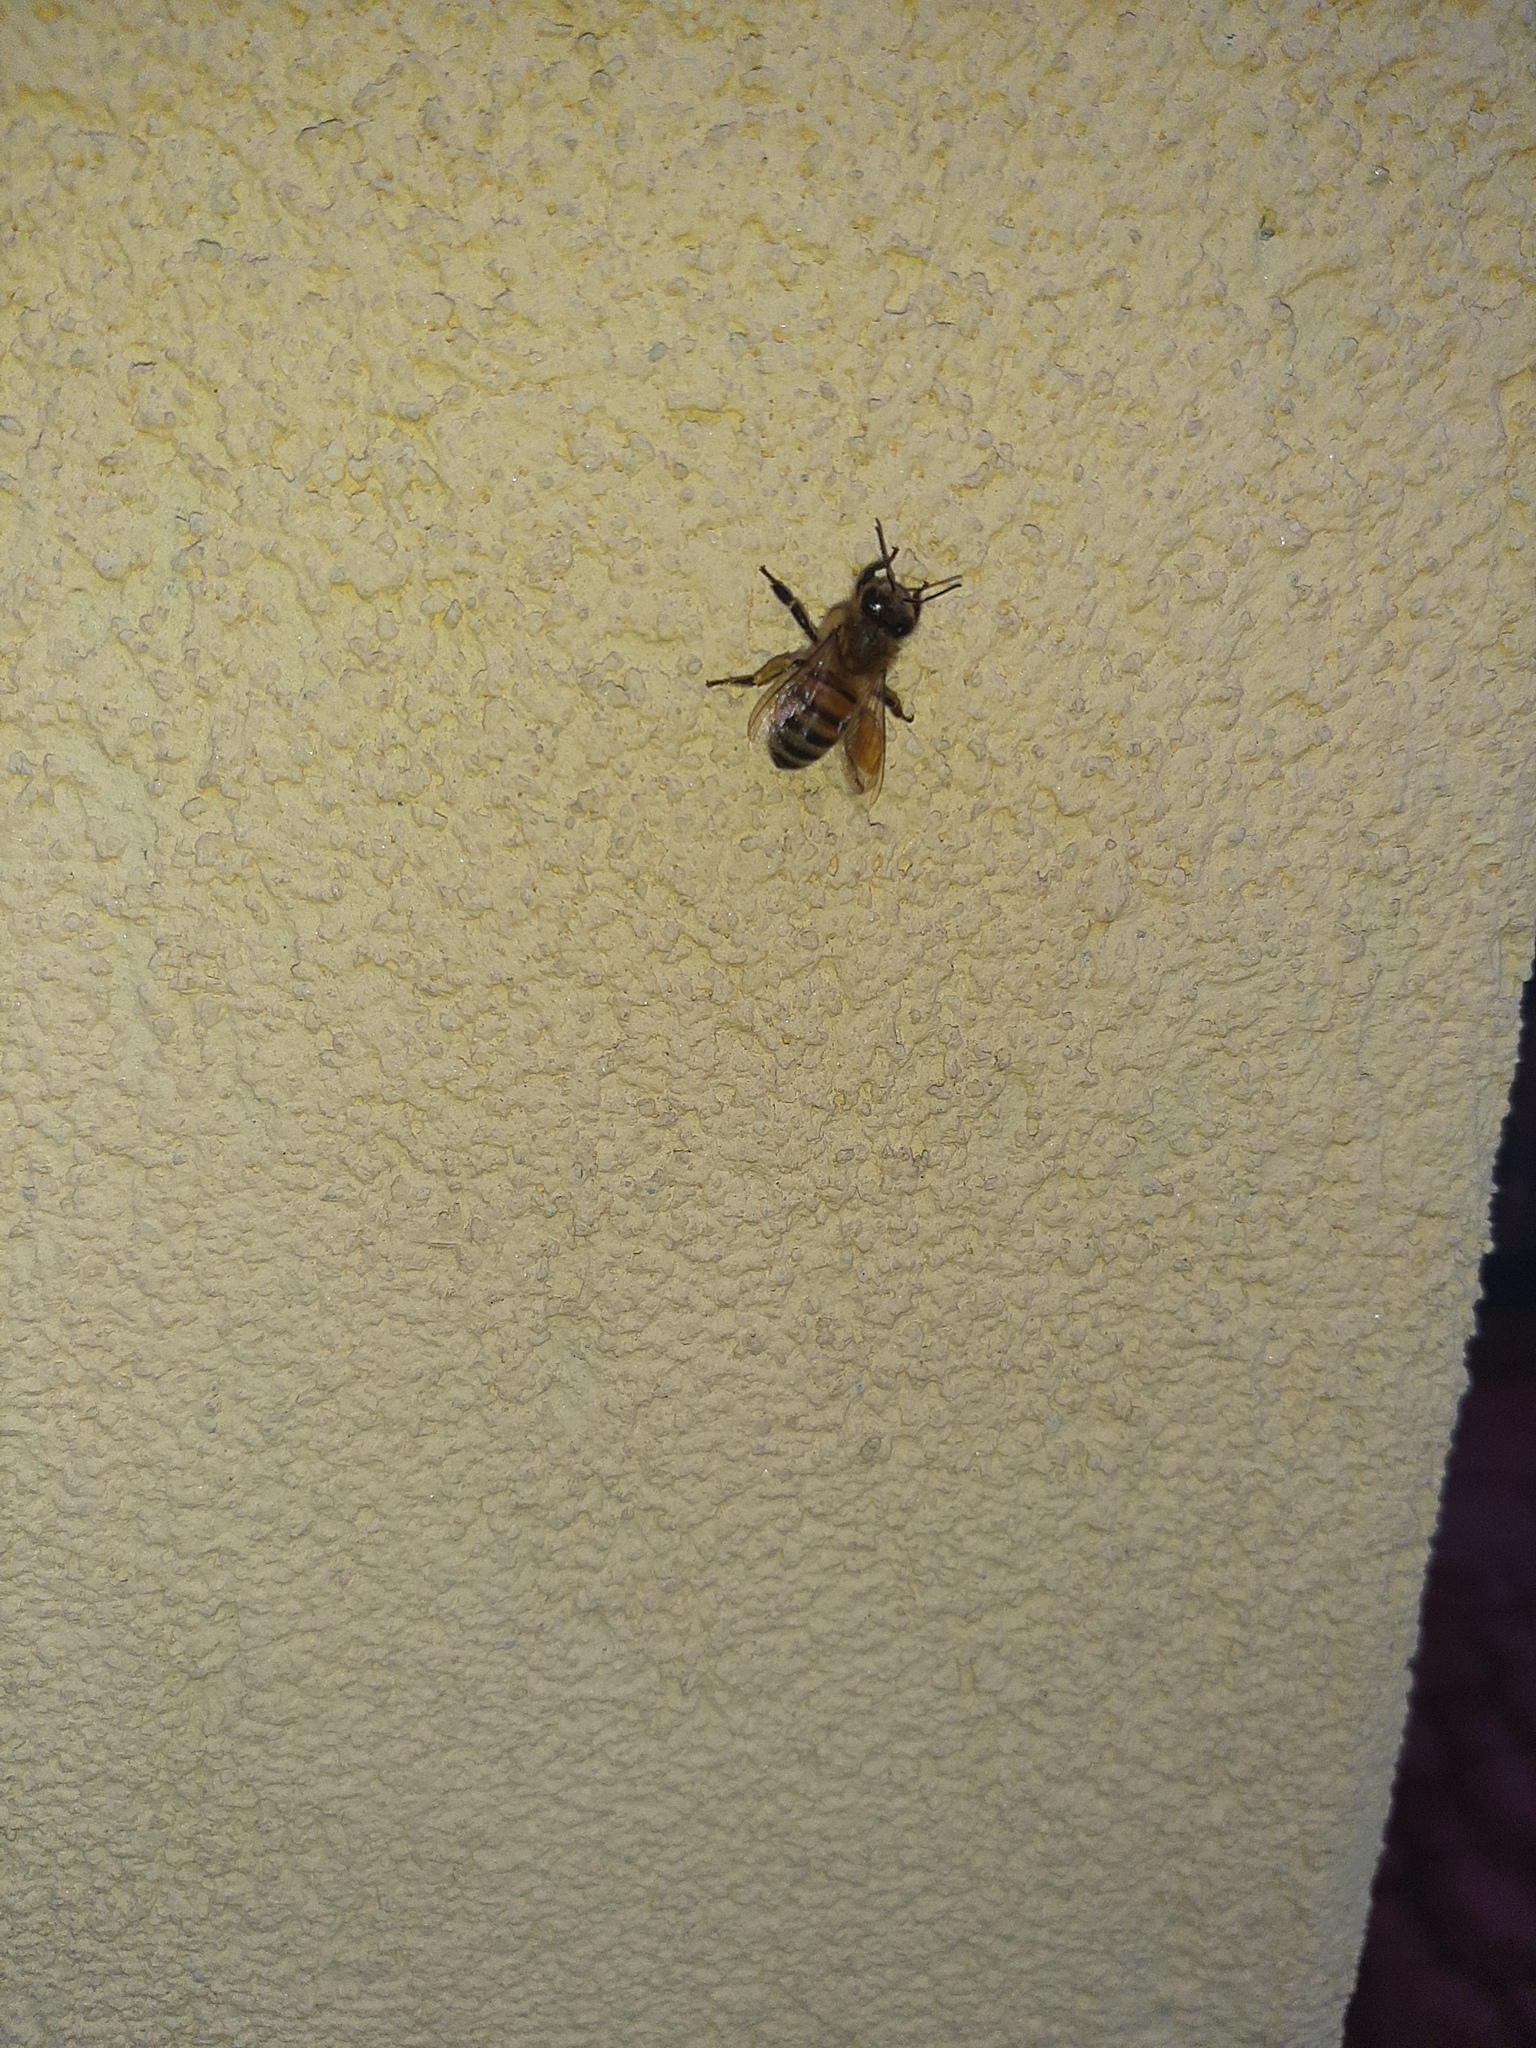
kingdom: Animalia
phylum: Arthropoda
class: Insecta
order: Hymenoptera
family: Apidae
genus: Apis
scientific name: Apis mellifera
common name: Honey bee
